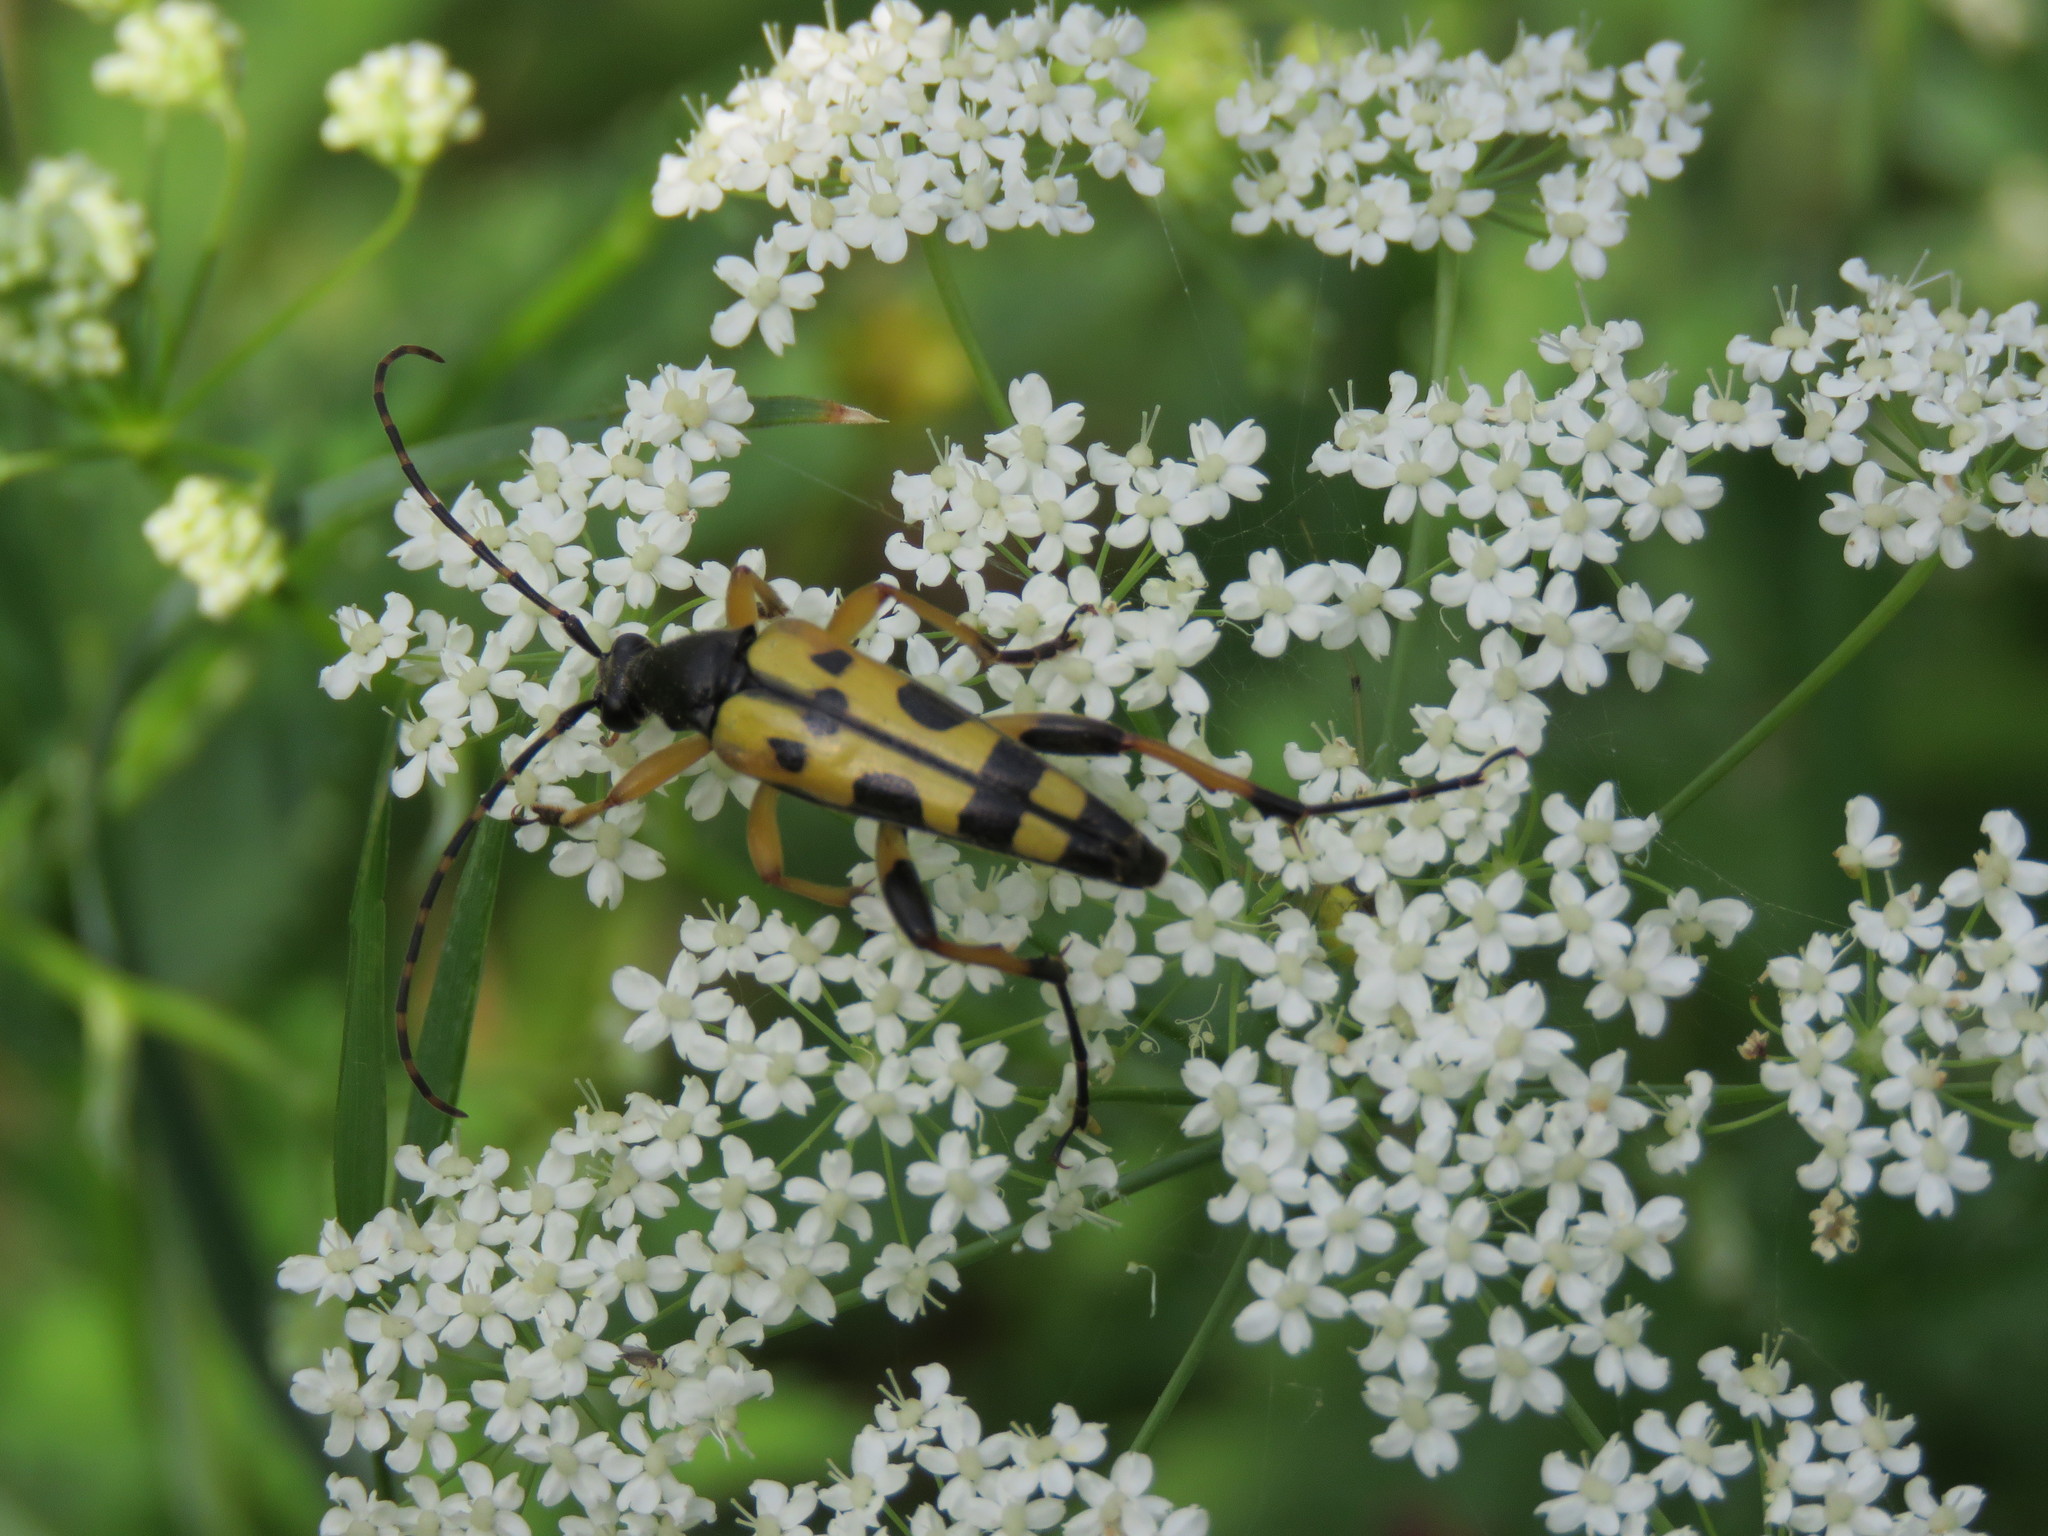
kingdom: Animalia
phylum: Arthropoda
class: Insecta
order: Coleoptera
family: Cerambycidae
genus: Rutpela
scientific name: Rutpela maculata
